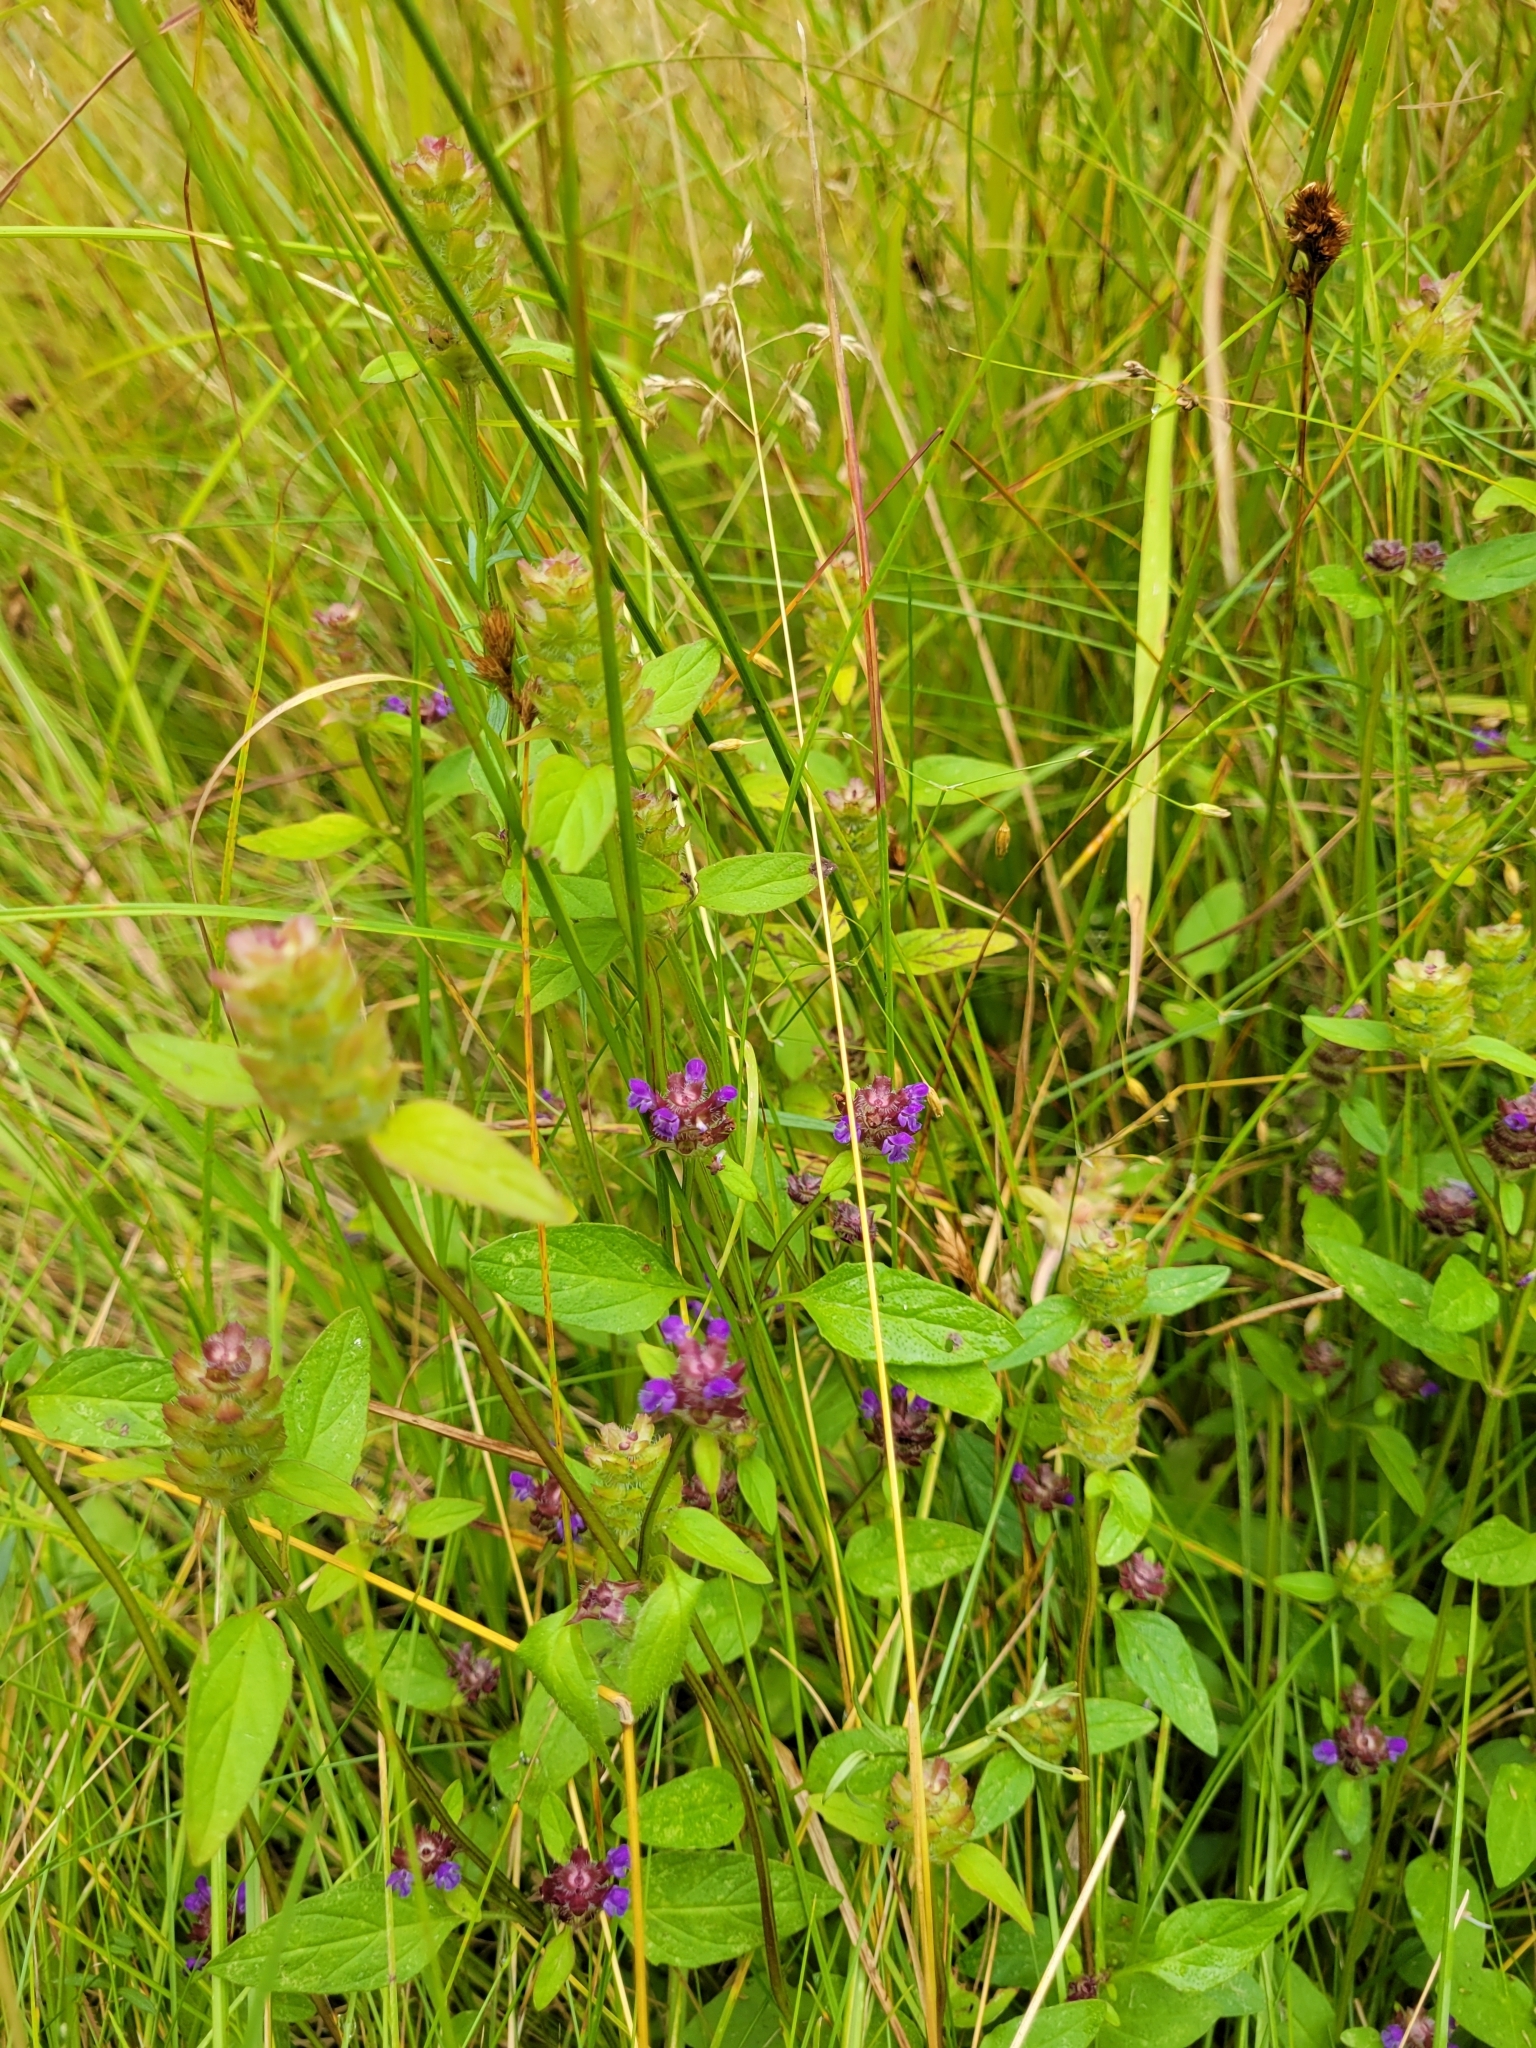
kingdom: Plantae
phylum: Tracheophyta
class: Magnoliopsida
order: Lamiales
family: Lamiaceae
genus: Prunella
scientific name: Prunella vulgaris
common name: Heal-all
